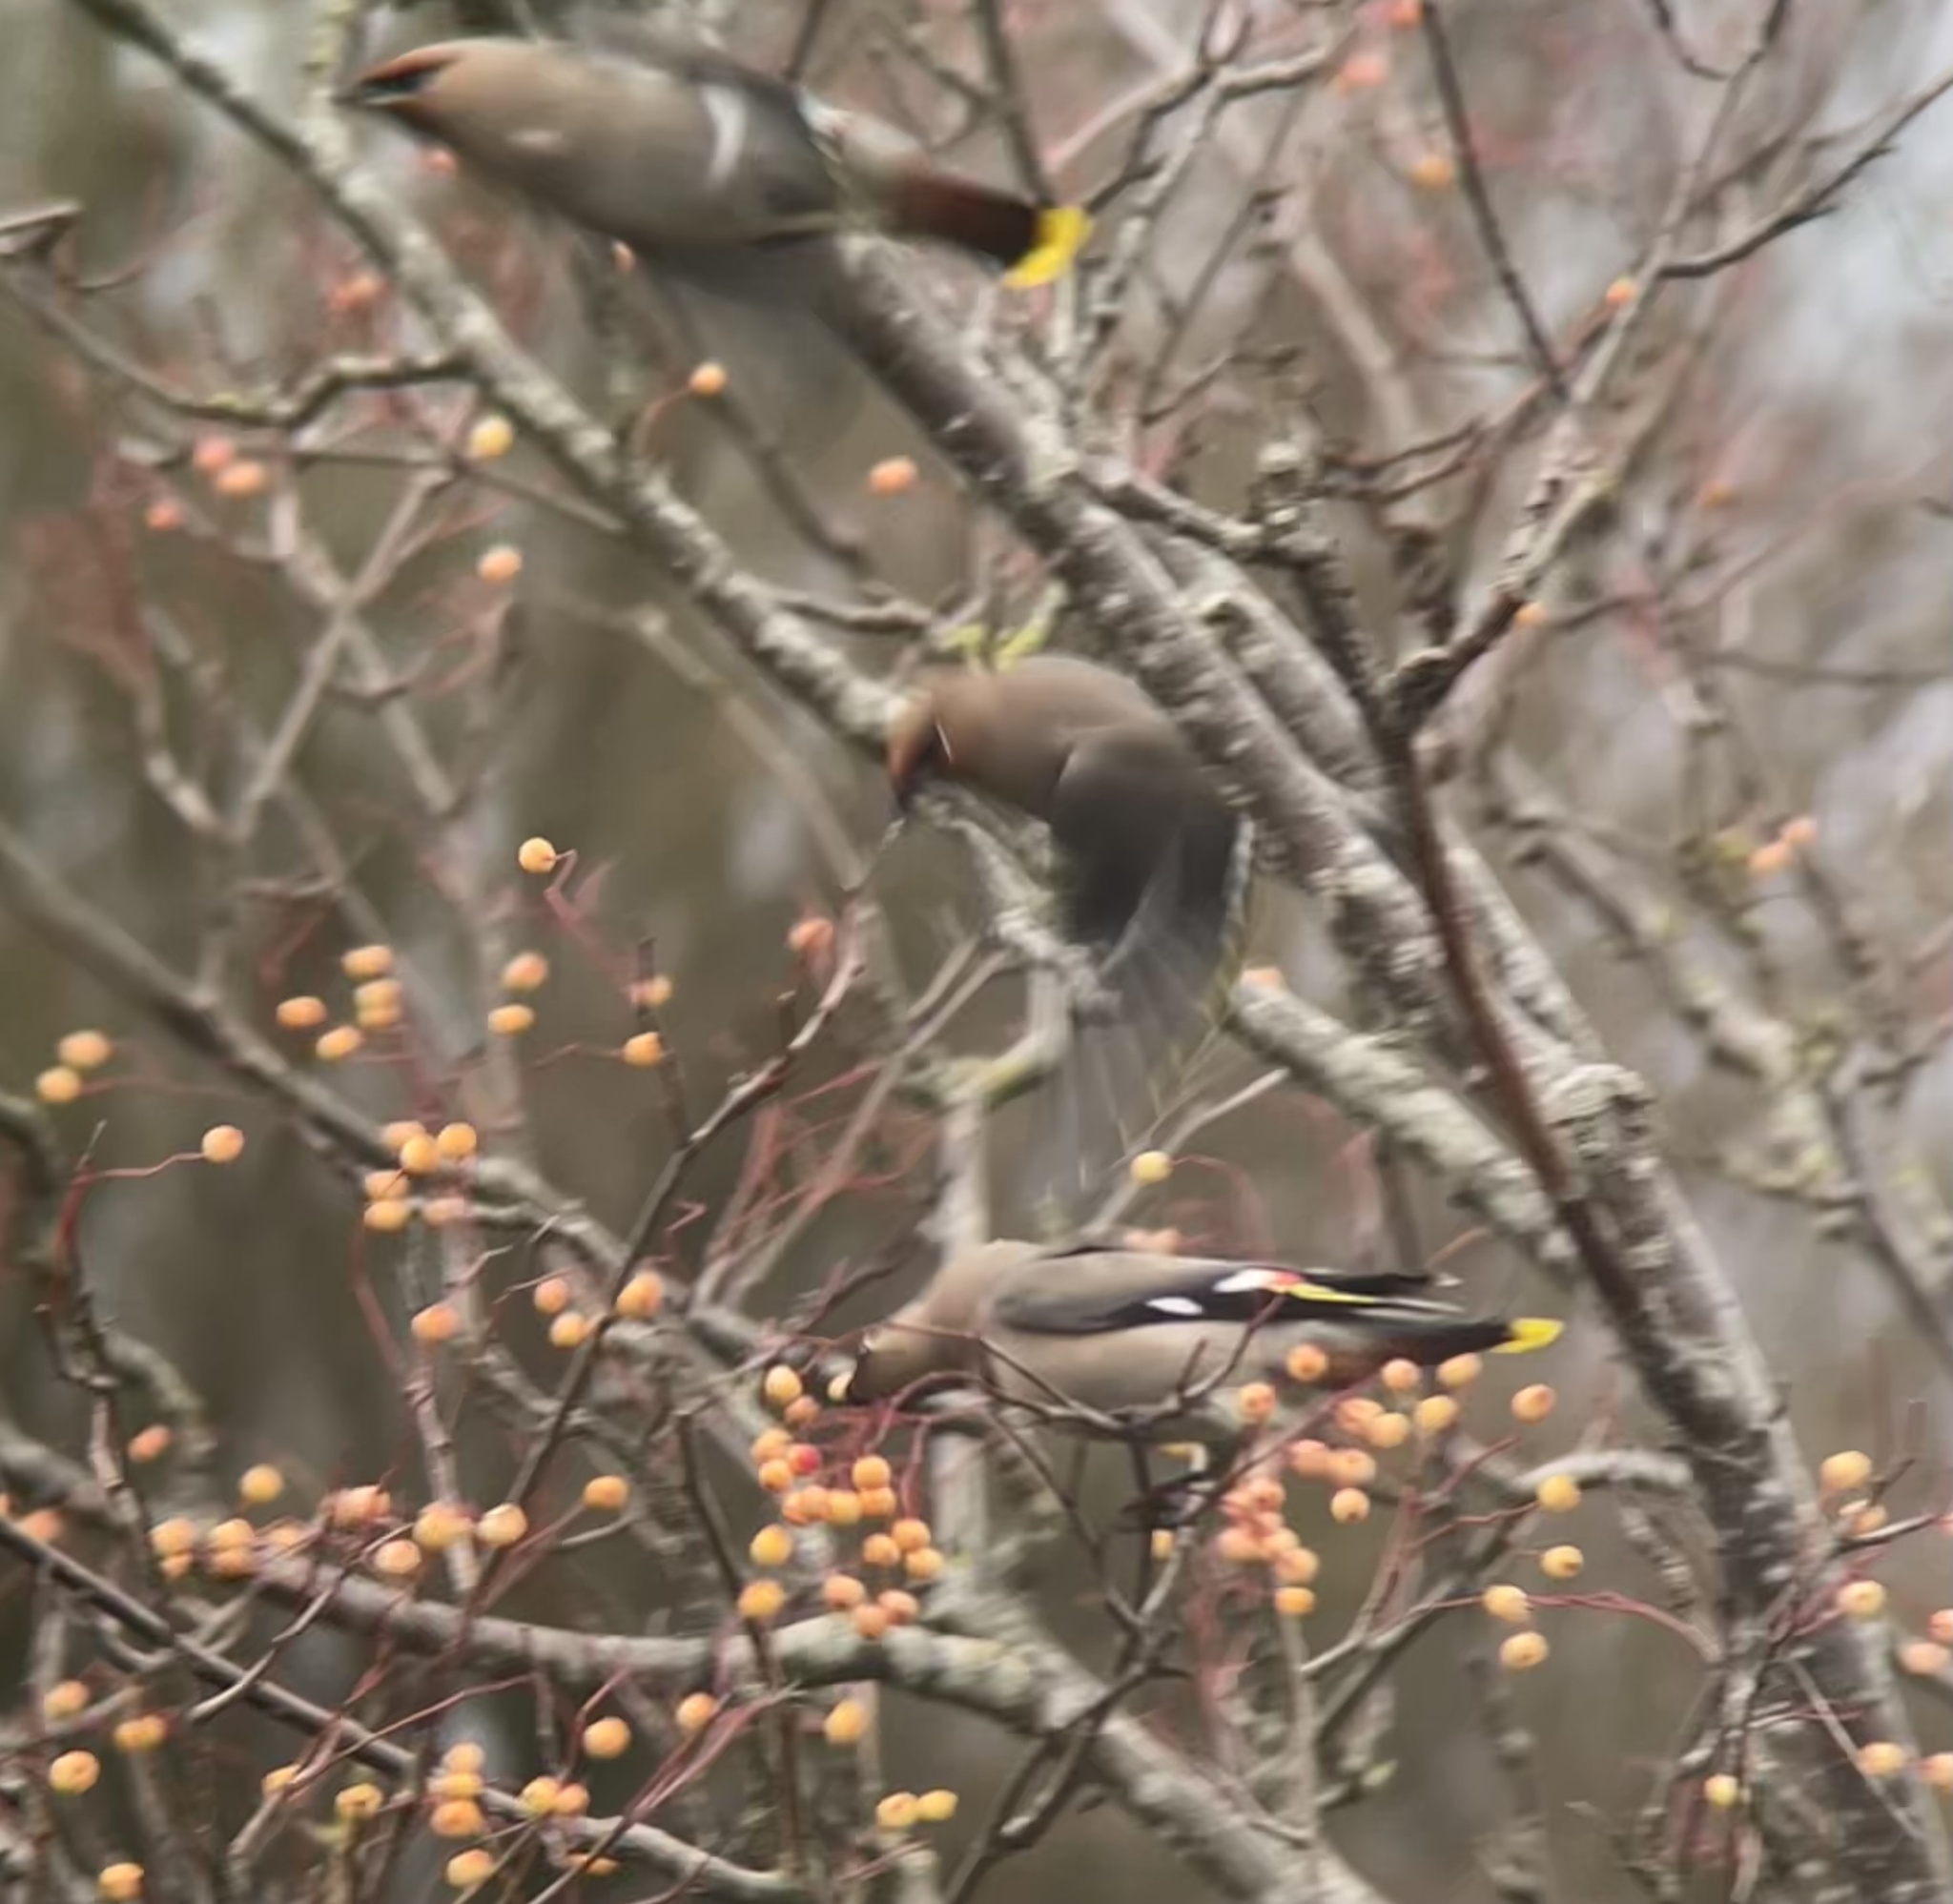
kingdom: Animalia
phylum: Chordata
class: Aves
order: Passeriformes
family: Bombycillidae
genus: Bombycilla
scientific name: Bombycilla garrulus
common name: Bohemian waxwing
